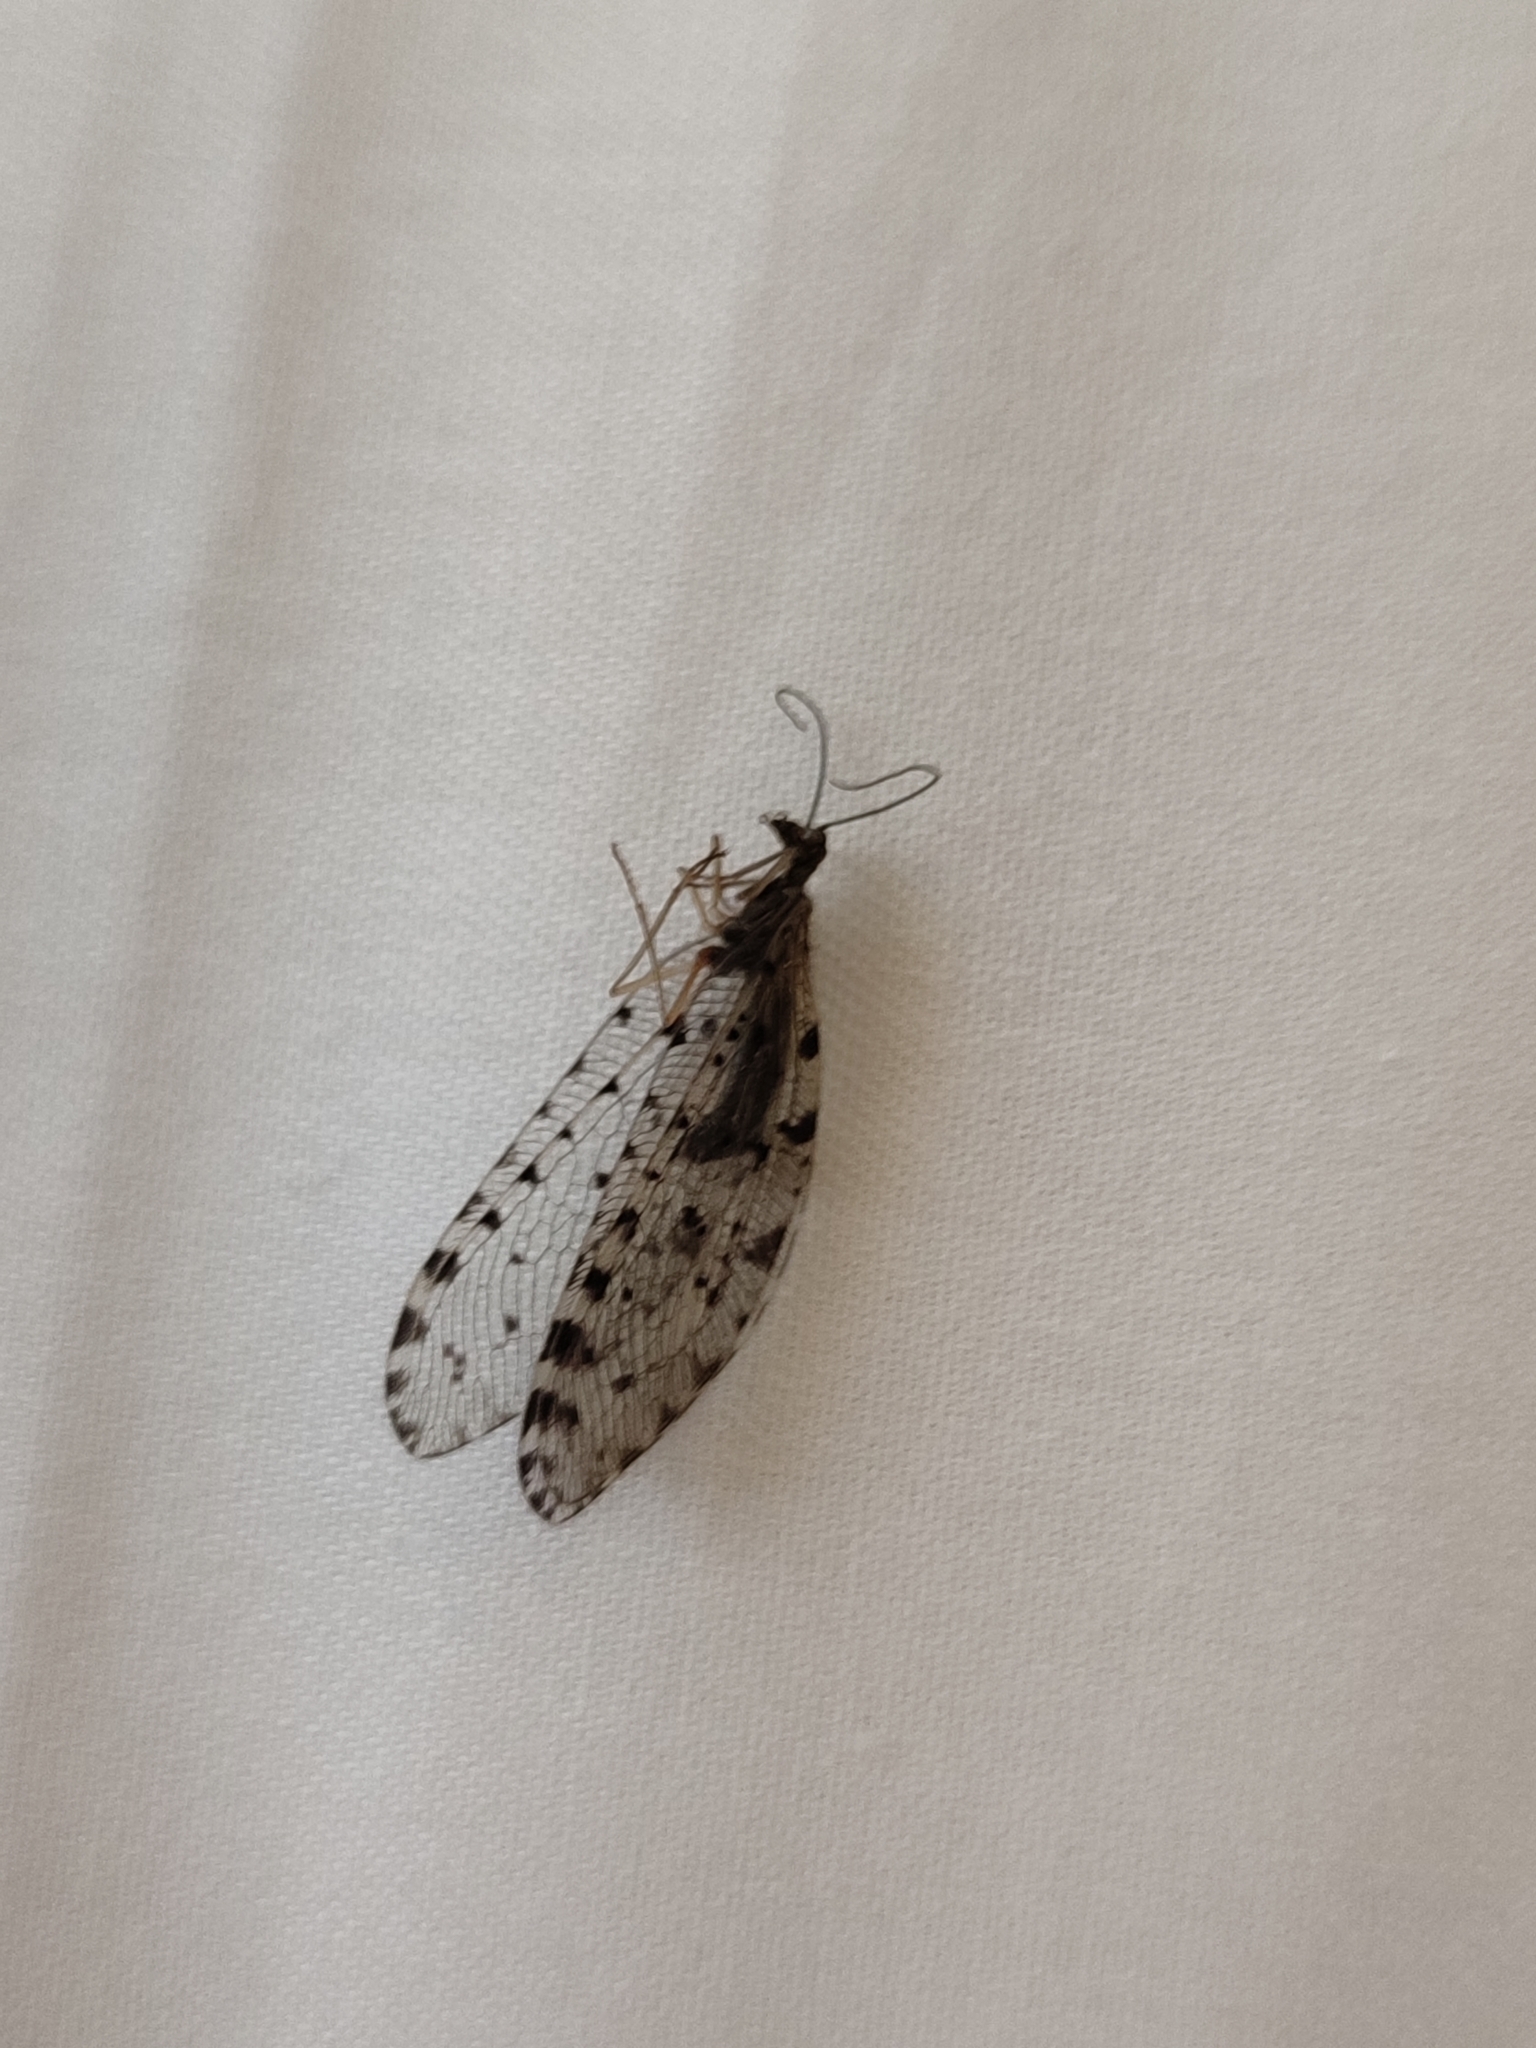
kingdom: Animalia
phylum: Arthropoda
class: Insecta
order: Neuroptera
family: Osmylidae
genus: Parosmylus
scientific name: Parosmylus elegantissimus
